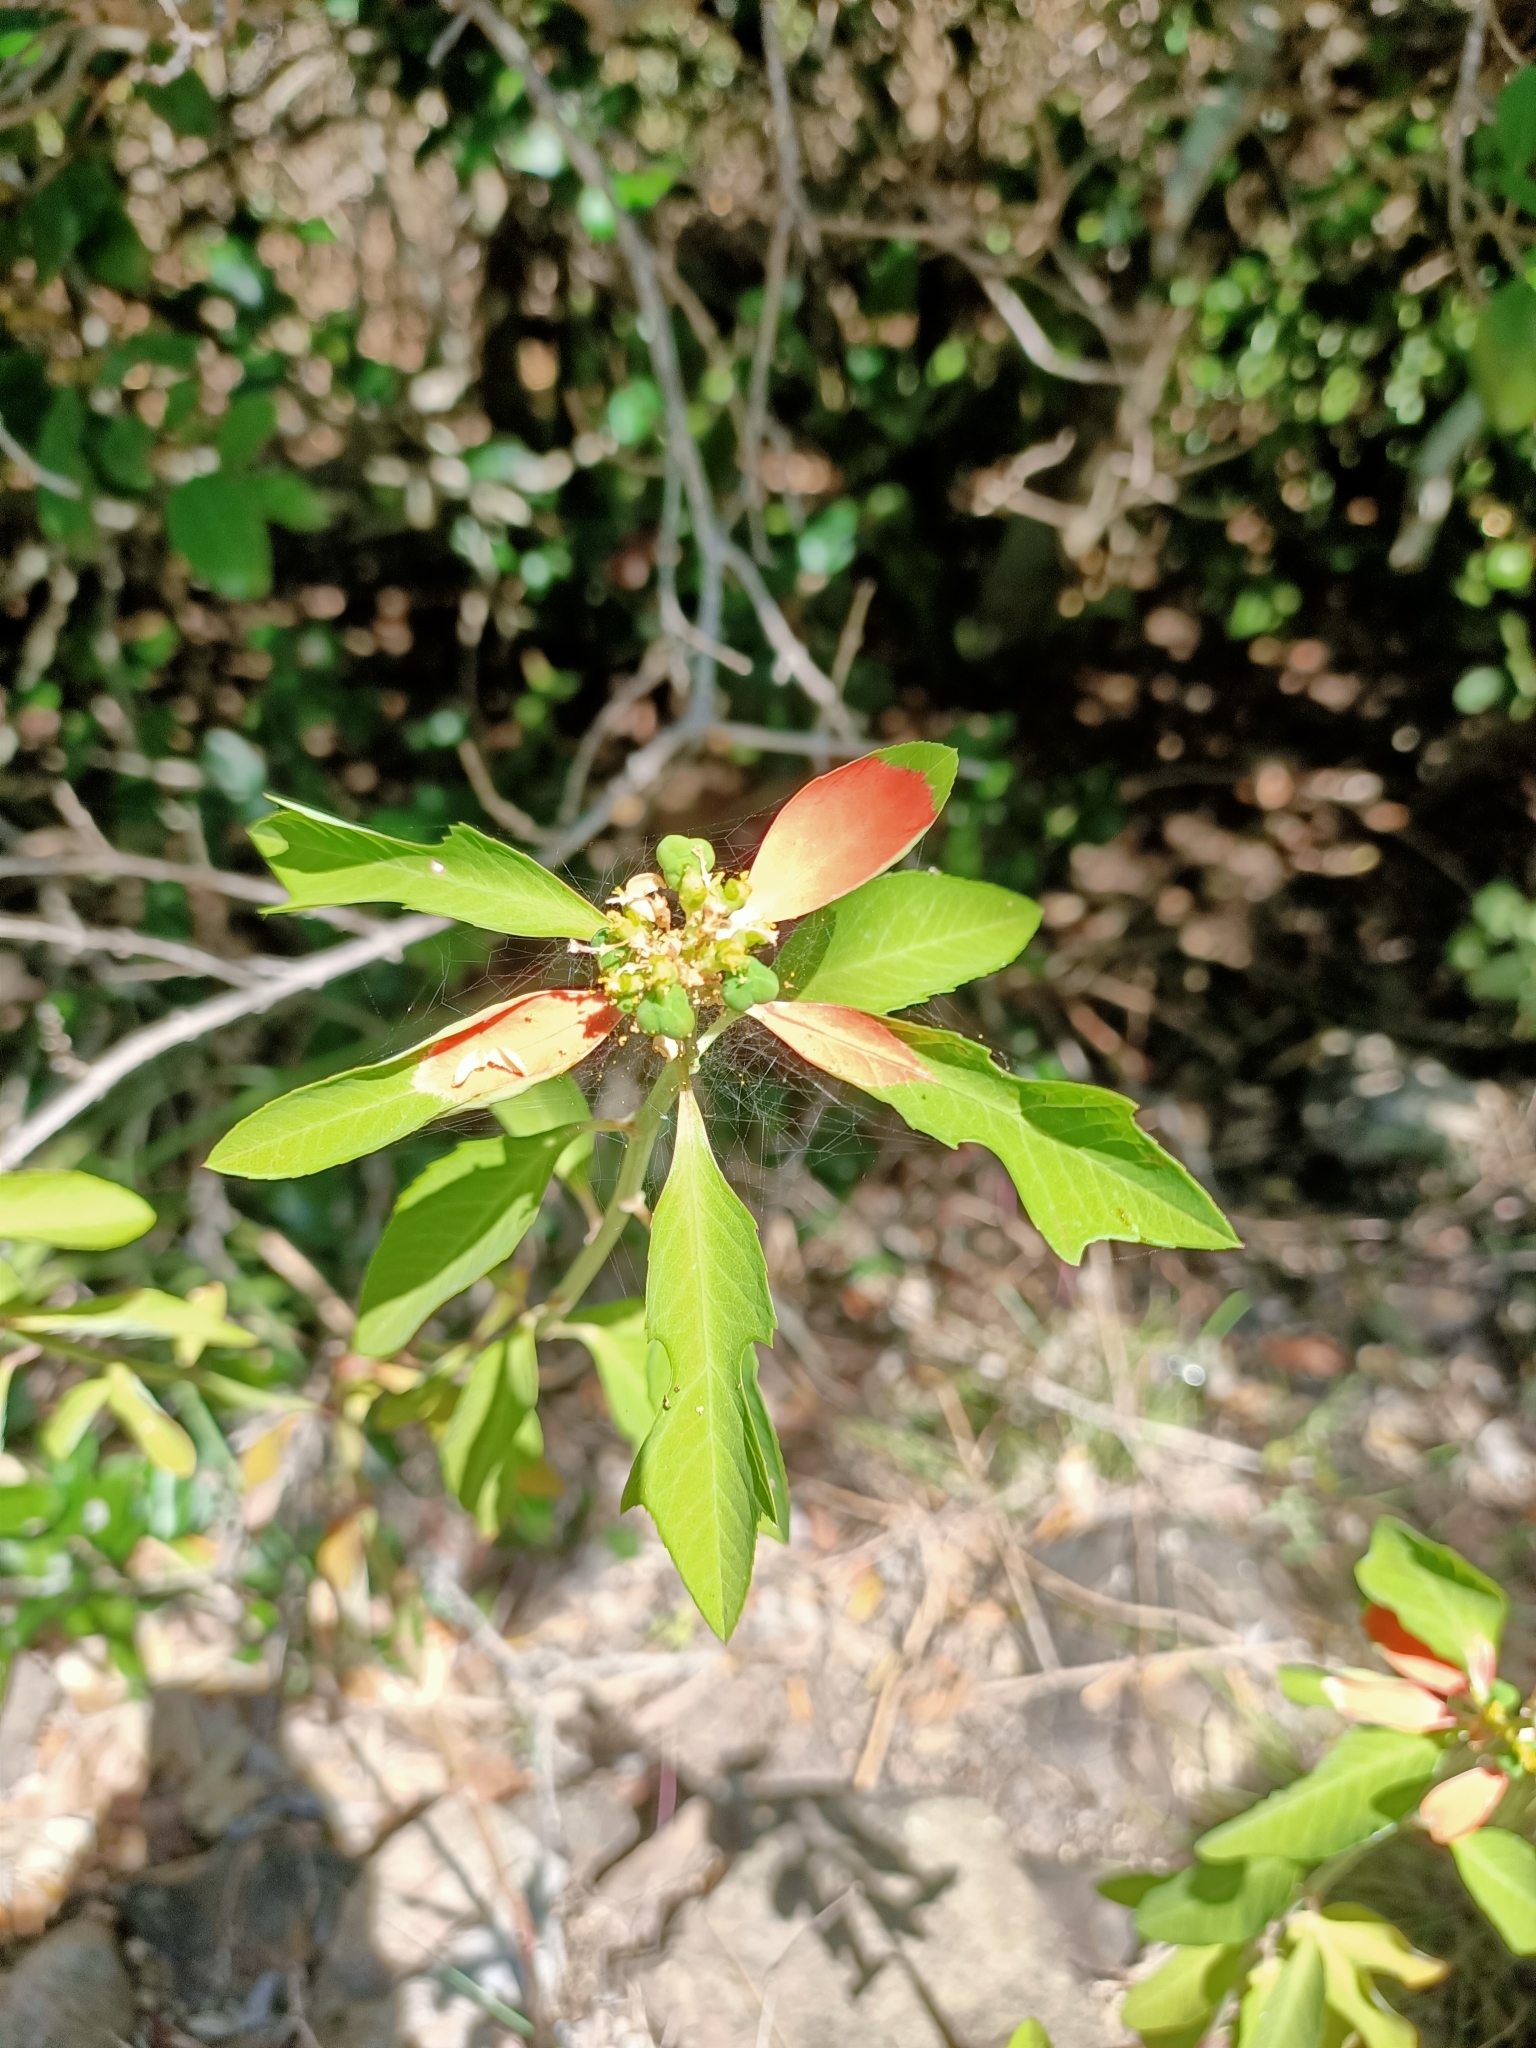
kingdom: Plantae
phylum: Tracheophyta
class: Magnoliopsida
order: Malpighiales
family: Euphorbiaceae
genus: Euphorbia
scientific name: Euphorbia heterophylla
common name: Mexican fireplant
